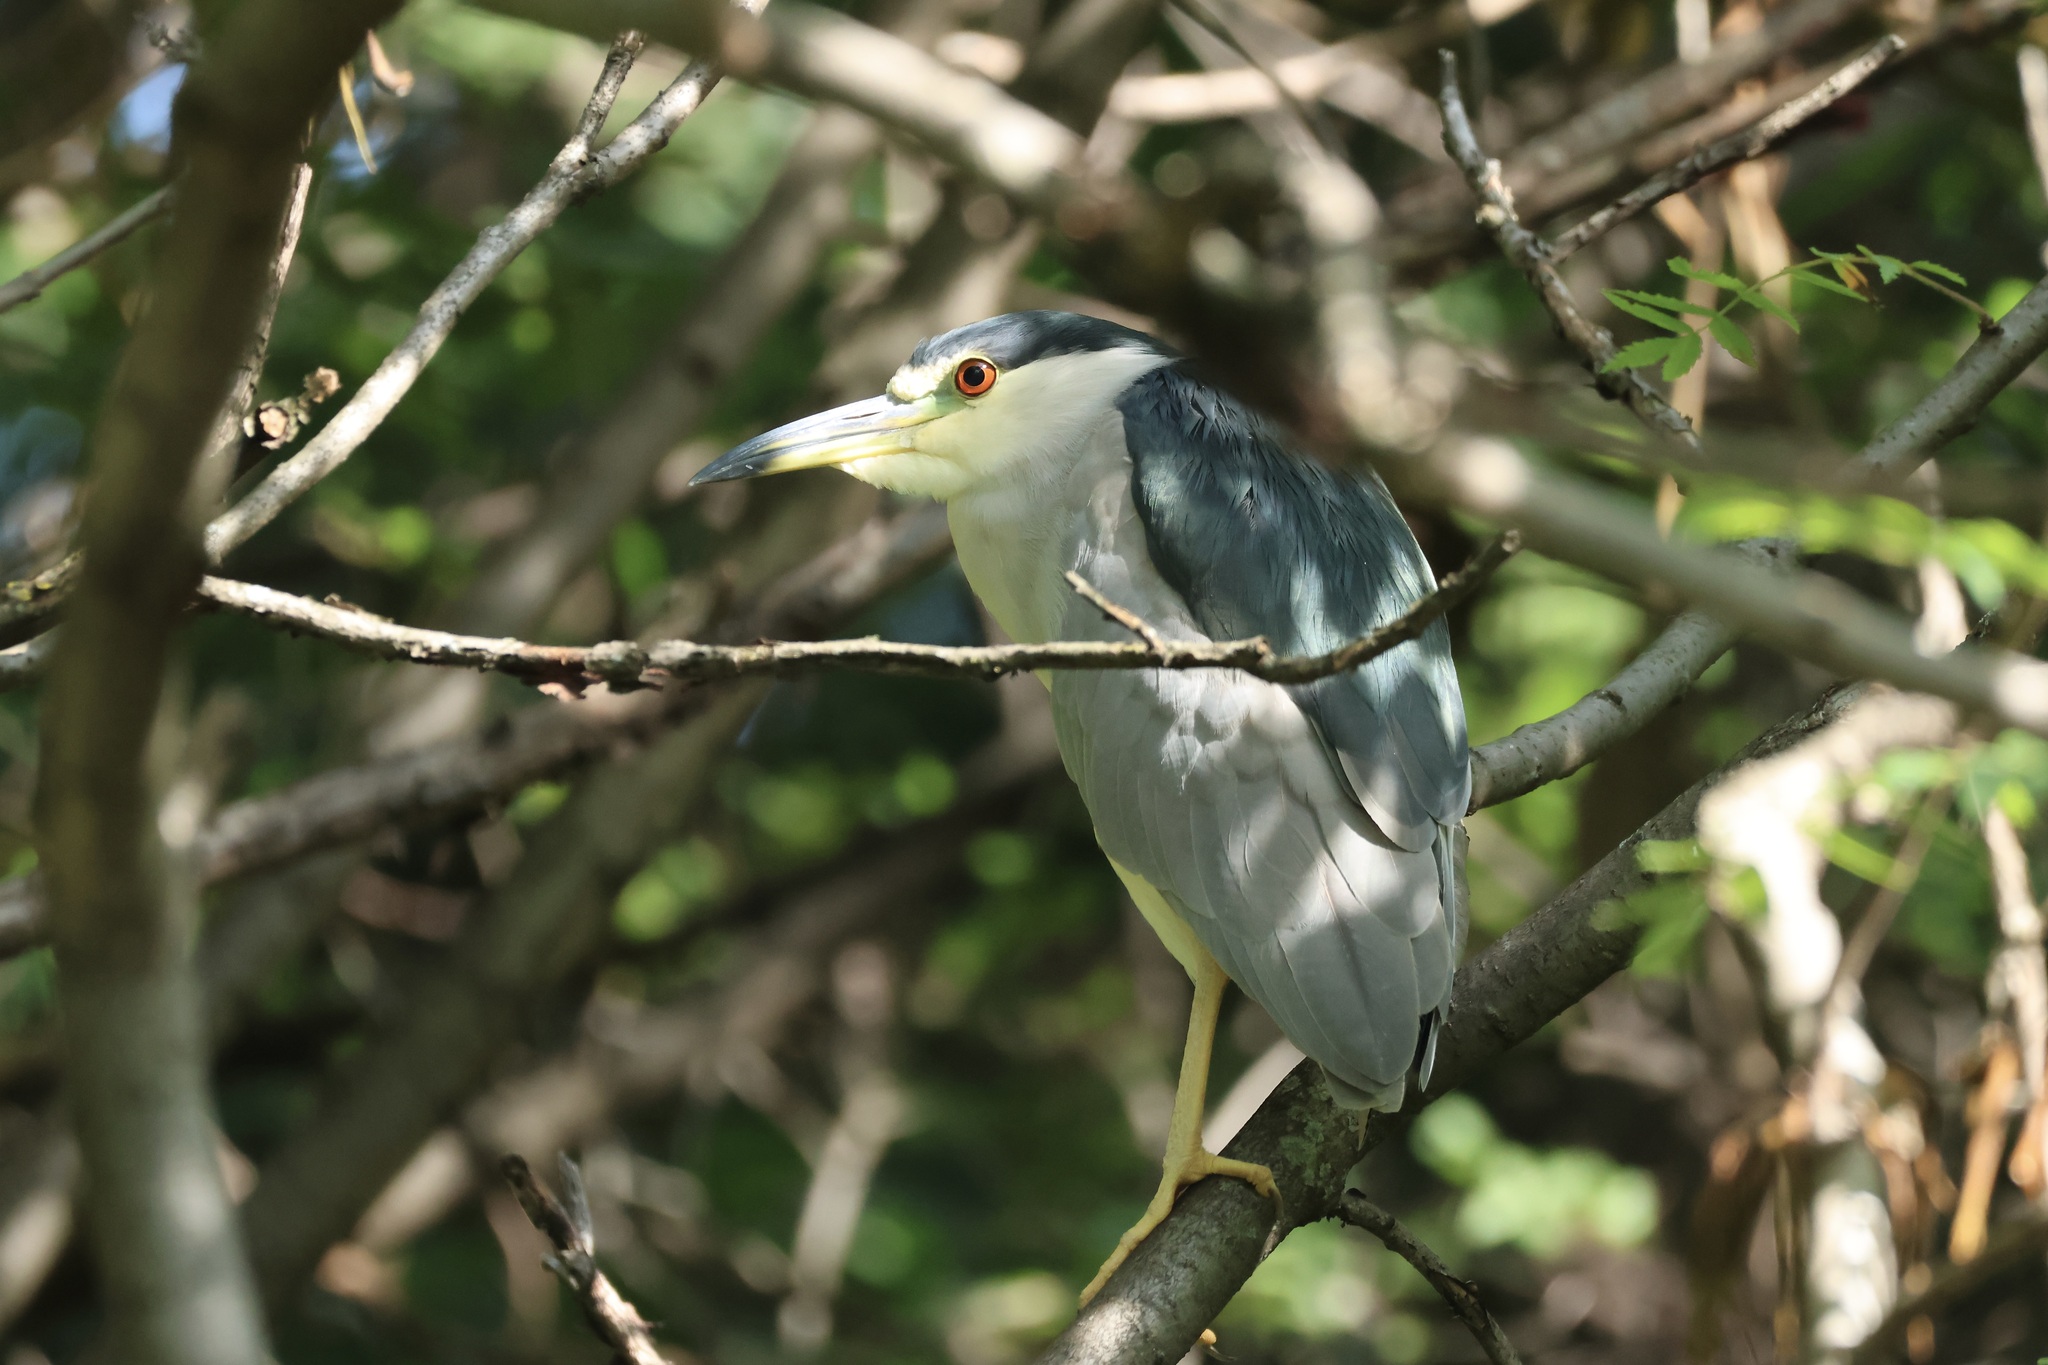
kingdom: Animalia
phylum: Chordata
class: Aves
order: Pelecaniformes
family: Ardeidae
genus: Nycticorax
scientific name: Nycticorax nycticorax
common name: Black-crowned night heron
